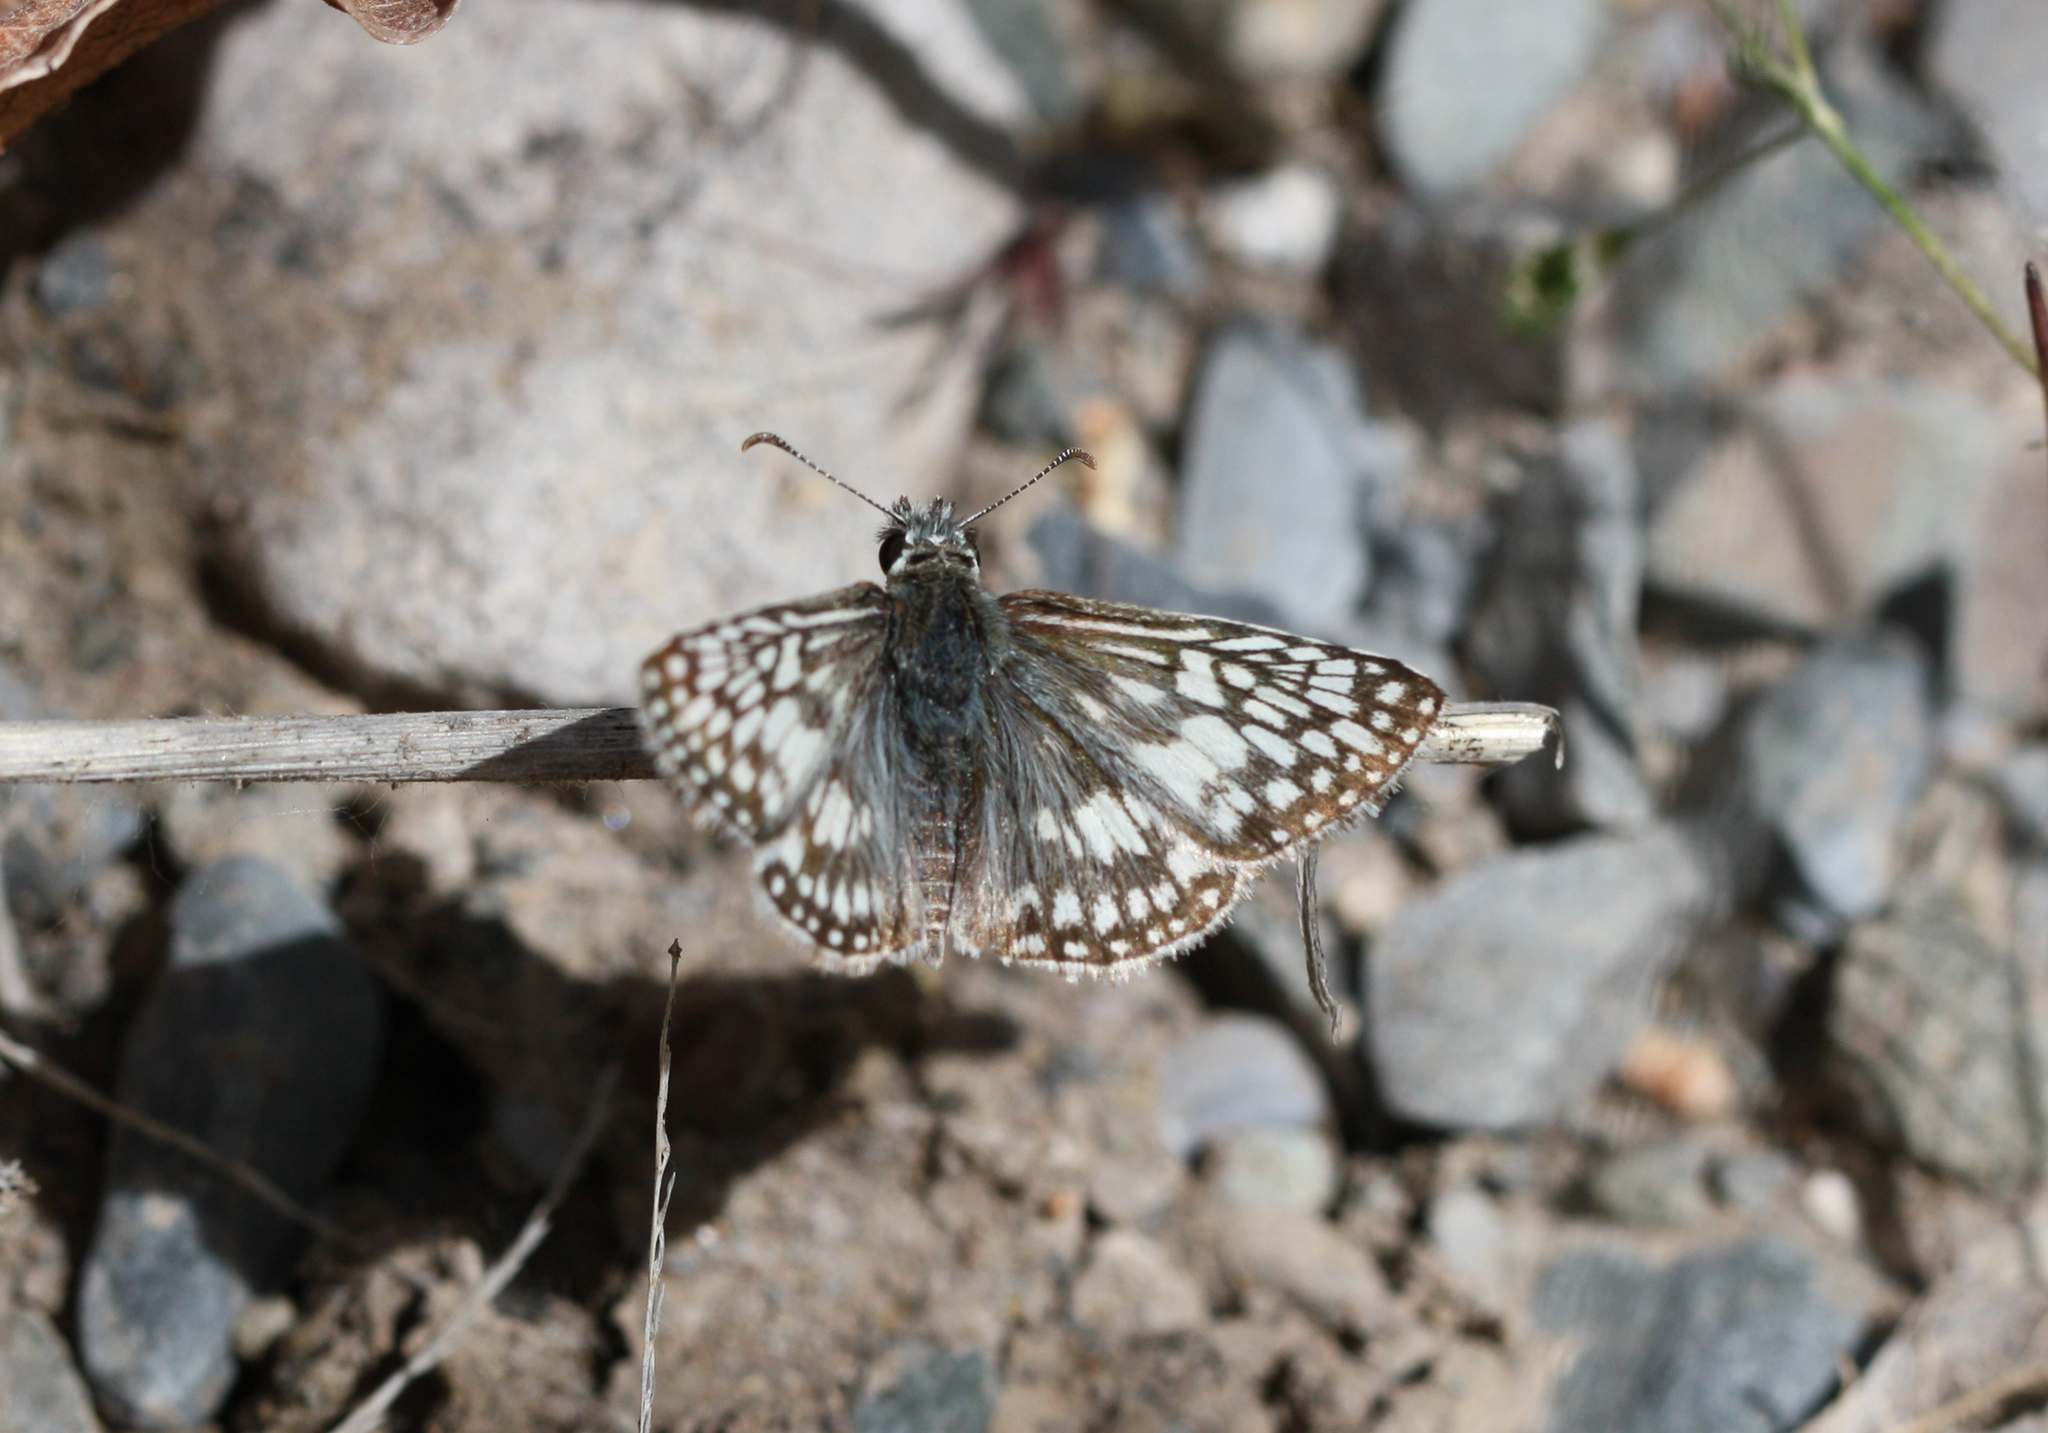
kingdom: Animalia
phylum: Arthropoda
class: Insecta
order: Lepidoptera
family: Hesperiidae
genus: Burnsius
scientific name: Burnsius communis
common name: Common checkered-skipper
